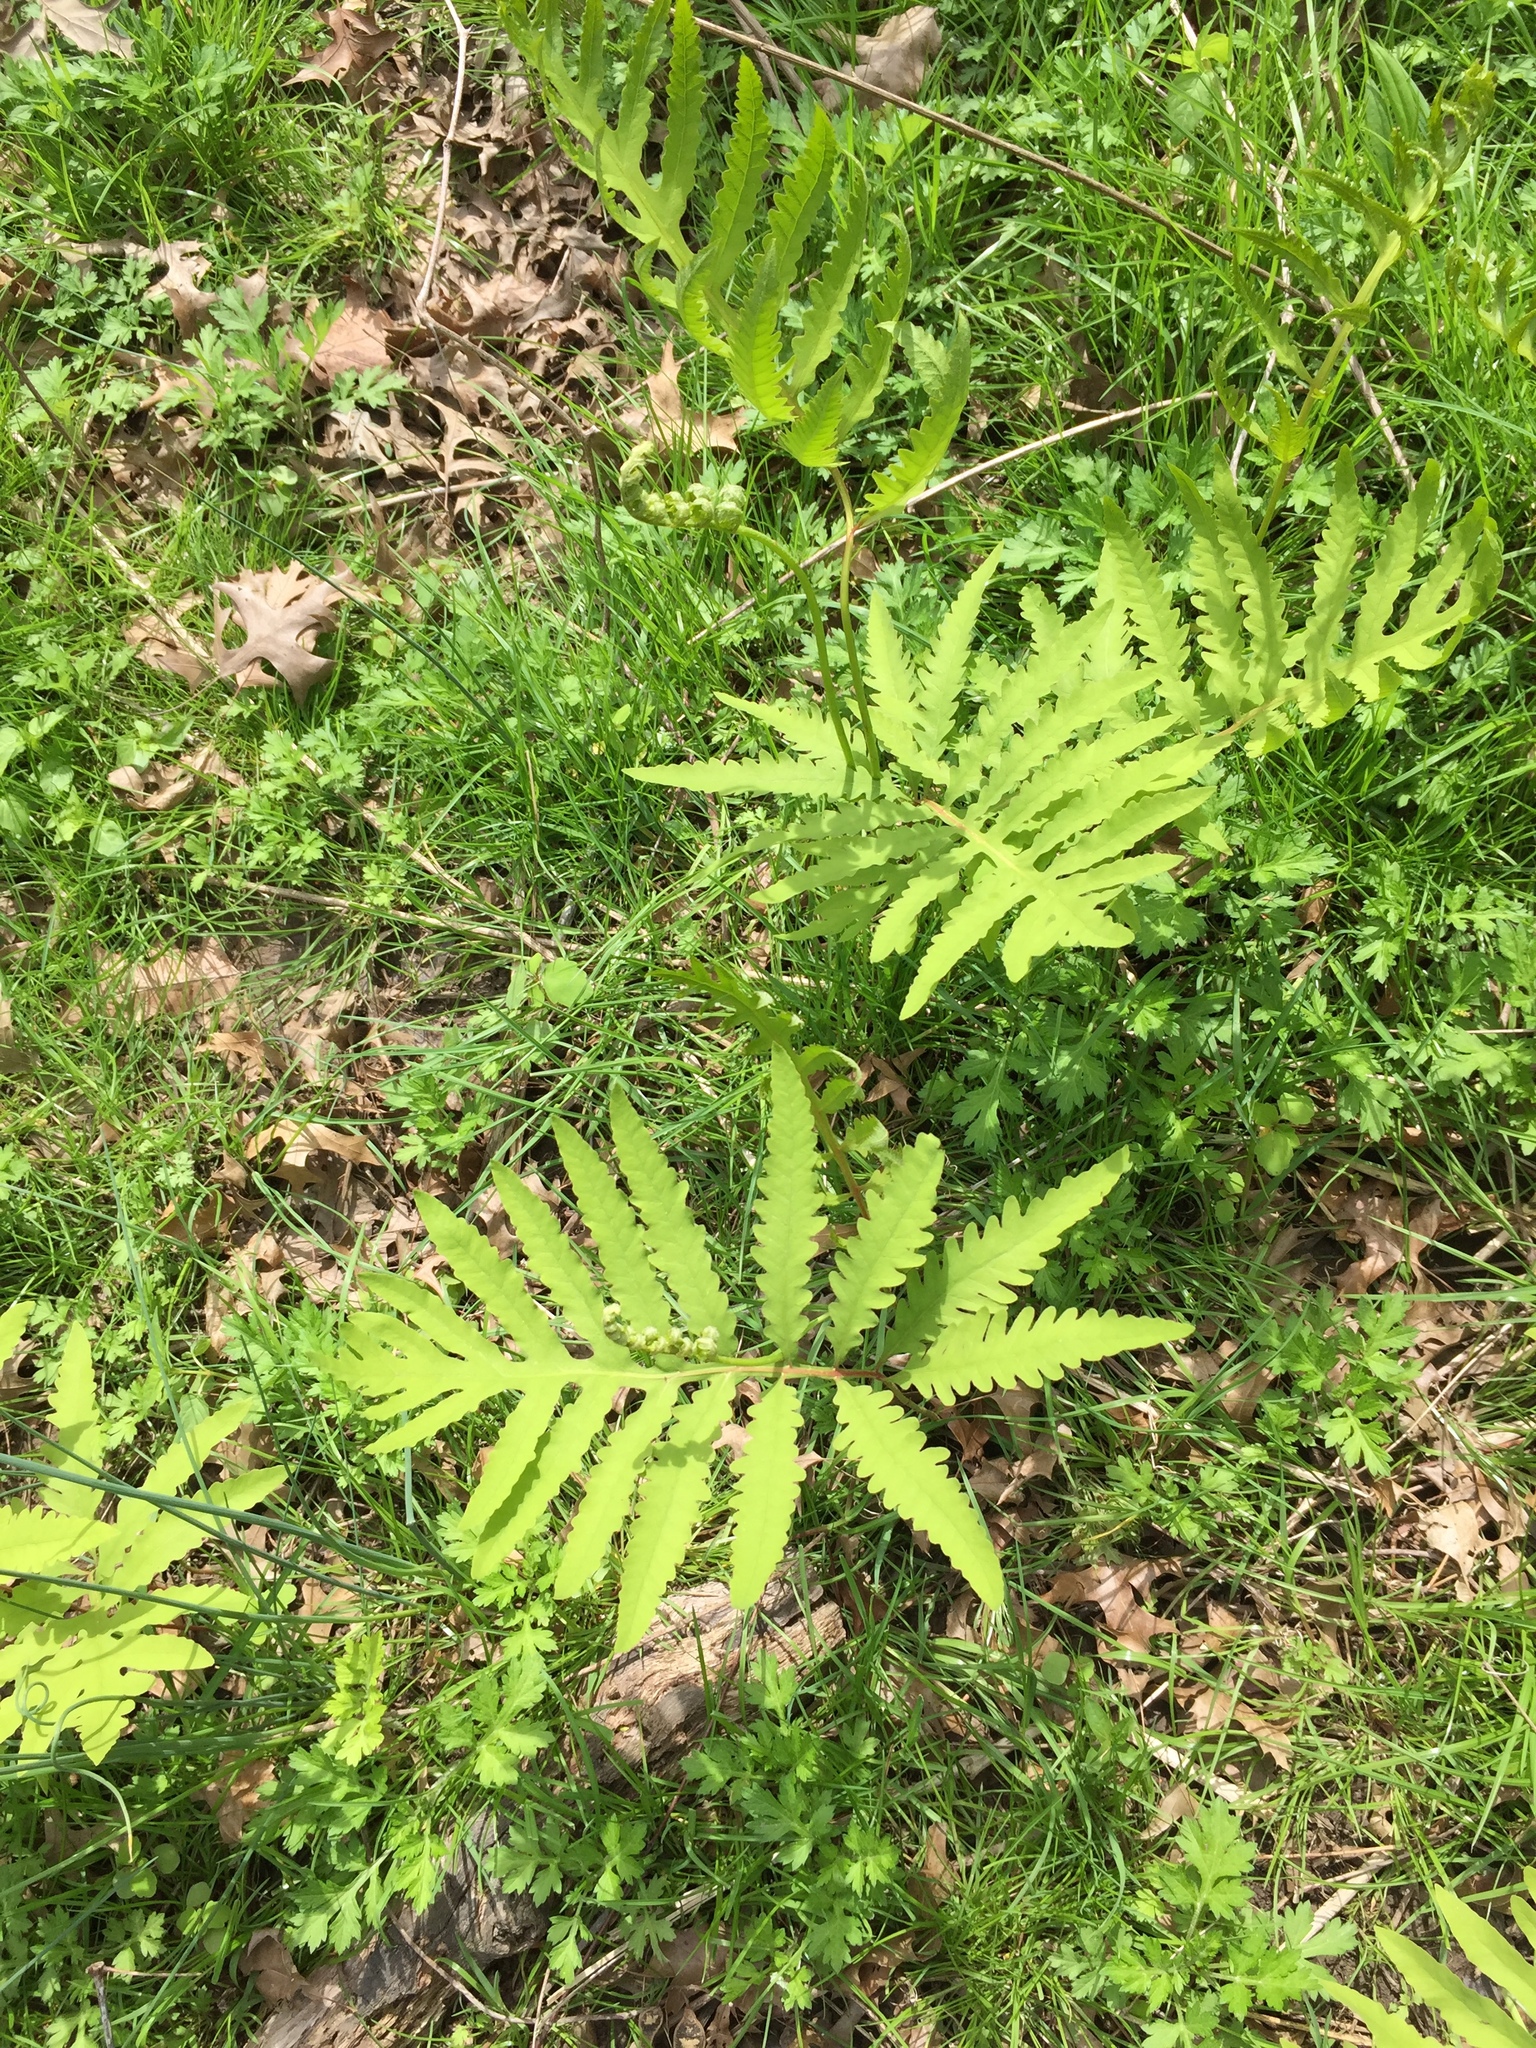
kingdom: Plantae
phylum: Tracheophyta
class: Polypodiopsida
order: Polypodiales
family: Onocleaceae
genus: Onoclea
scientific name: Onoclea sensibilis
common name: Sensitive fern
